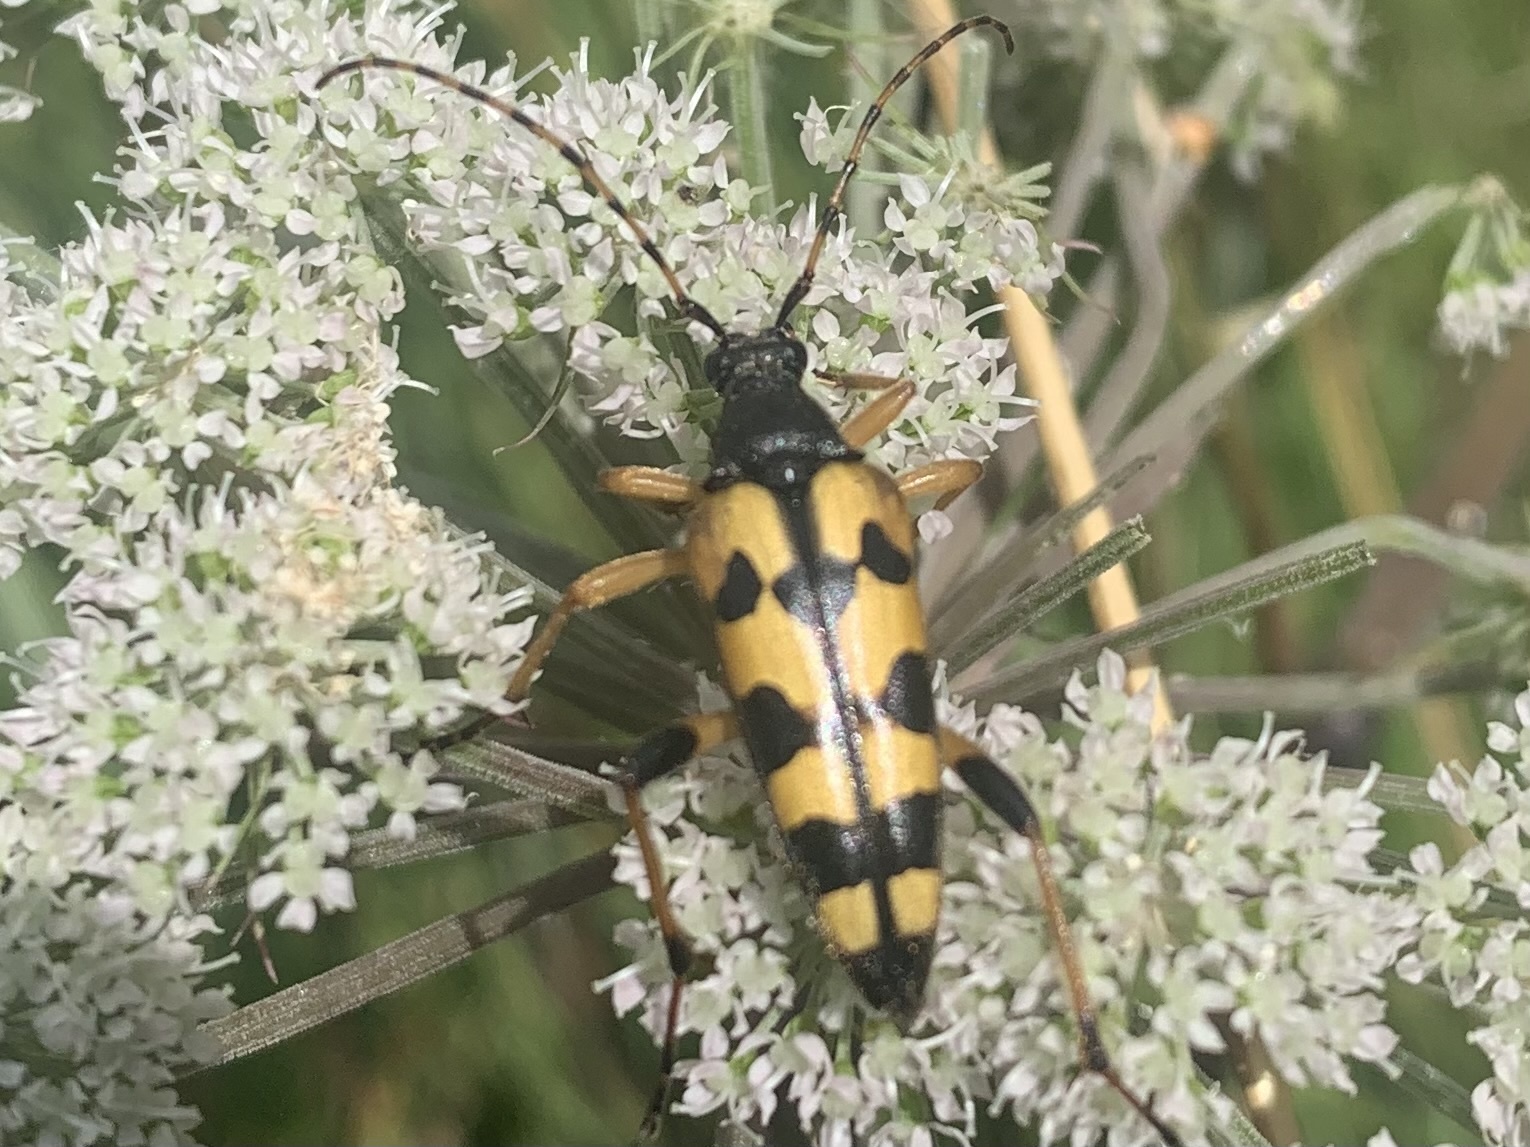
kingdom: Animalia
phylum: Arthropoda
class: Insecta
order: Coleoptera
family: Cerambycidae
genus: Rutpela
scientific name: Rutpela maculata
